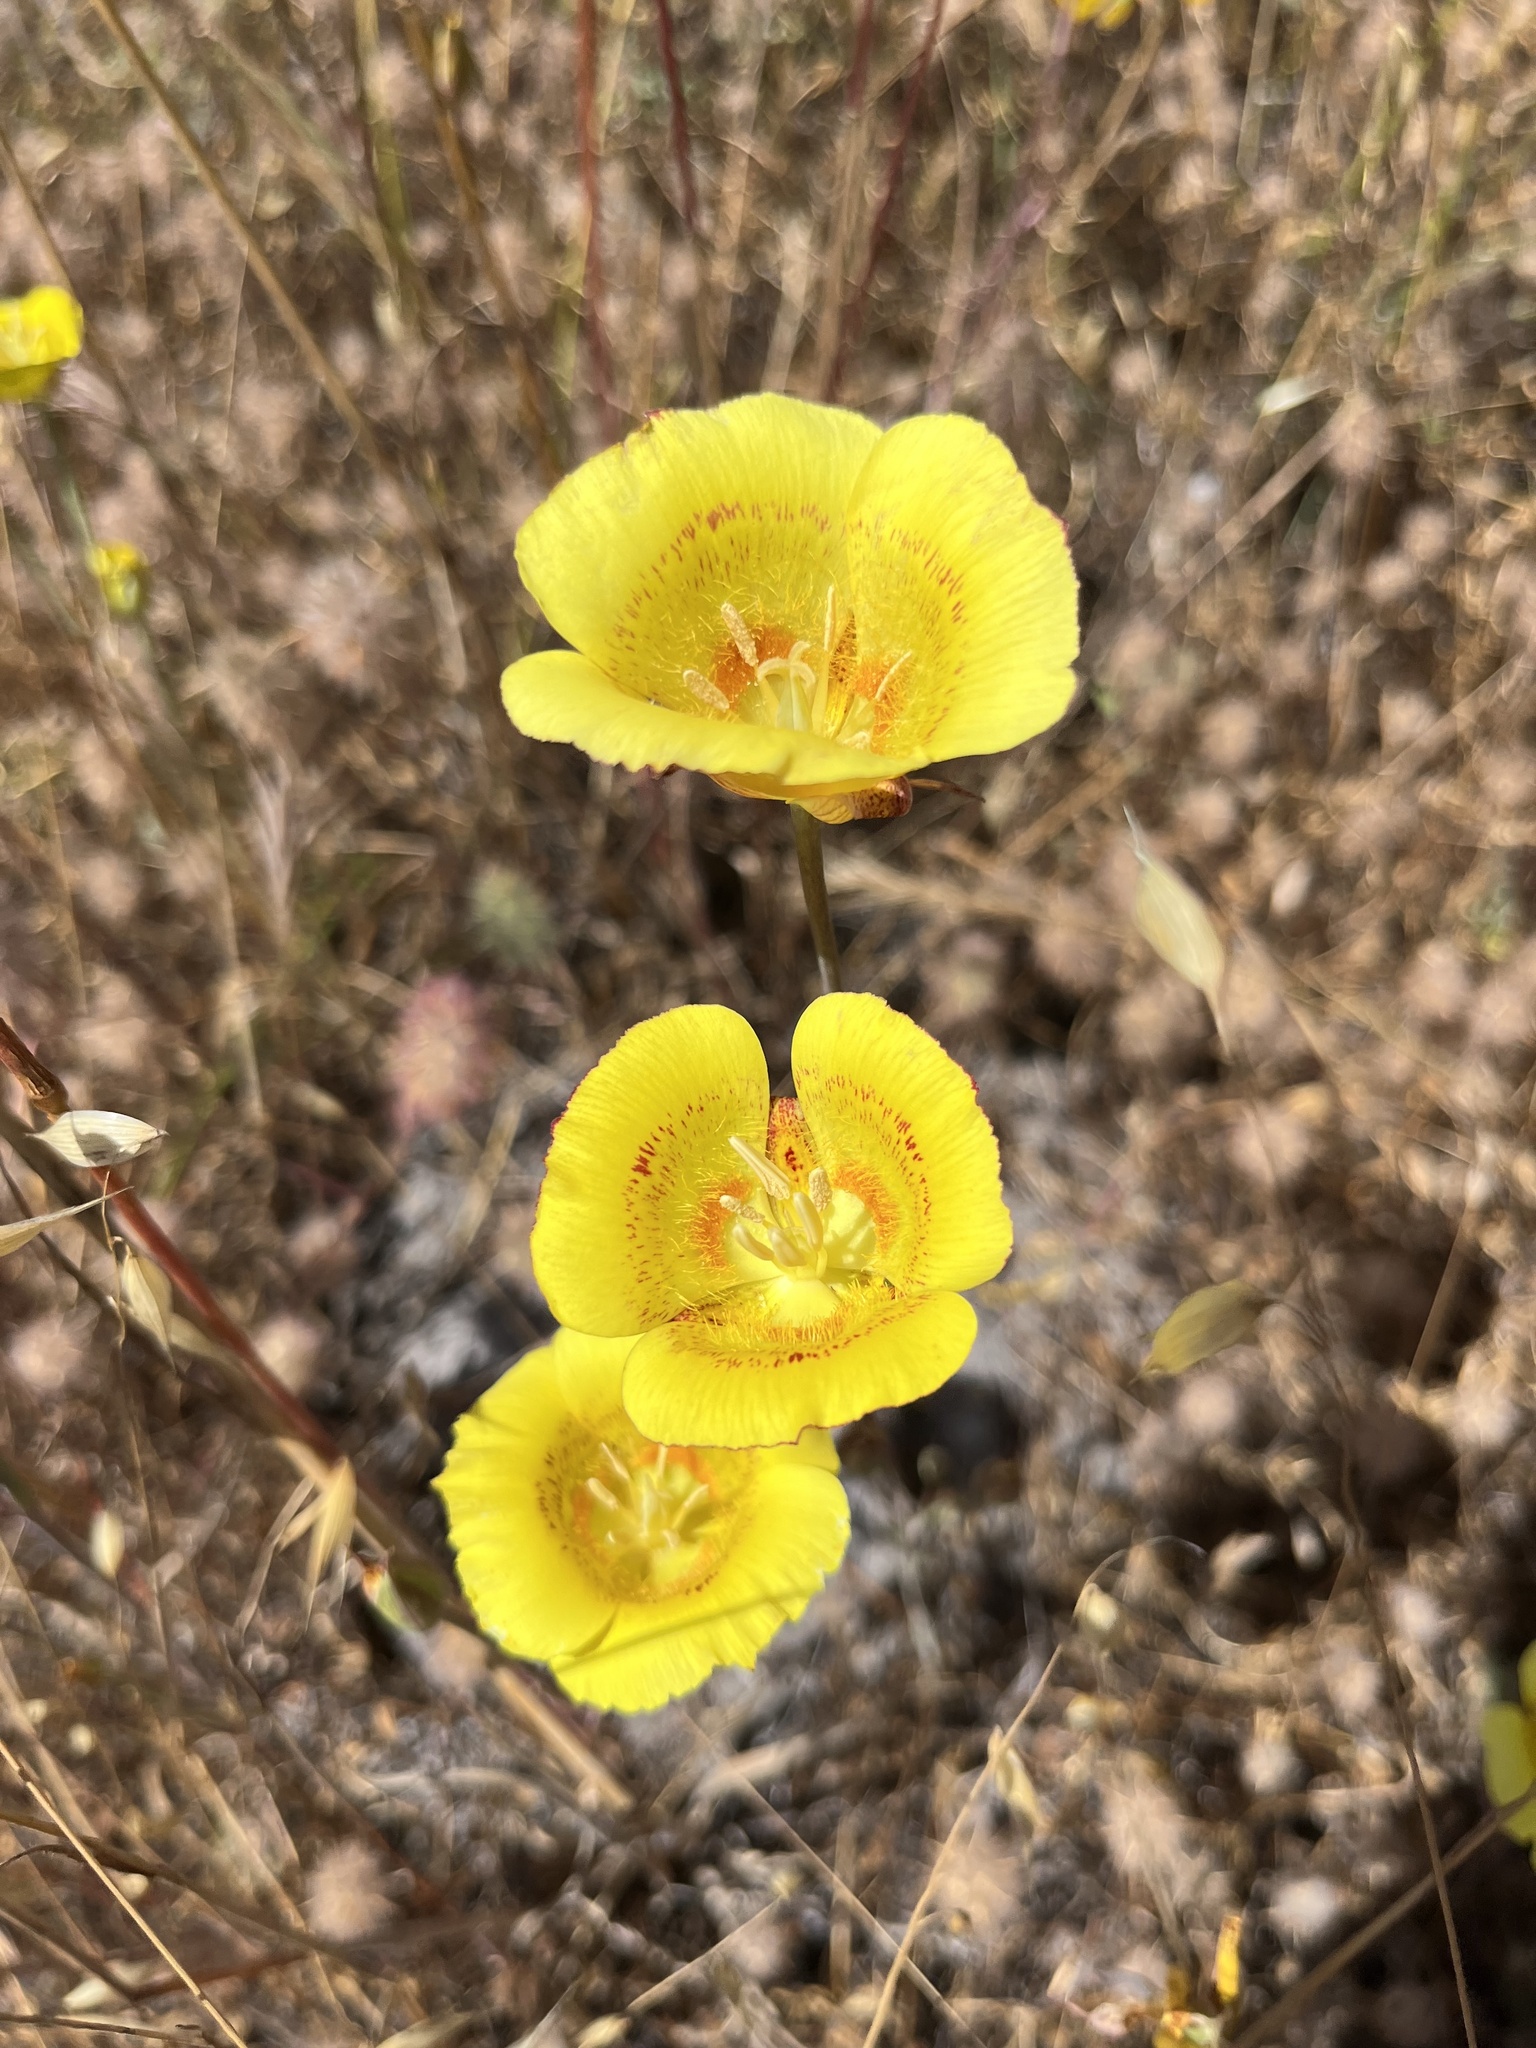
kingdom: Plantae
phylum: Tracheophyta
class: Liliopsida
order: Liliales
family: Liliaceae
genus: Calochortus
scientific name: Calochortus luteus
